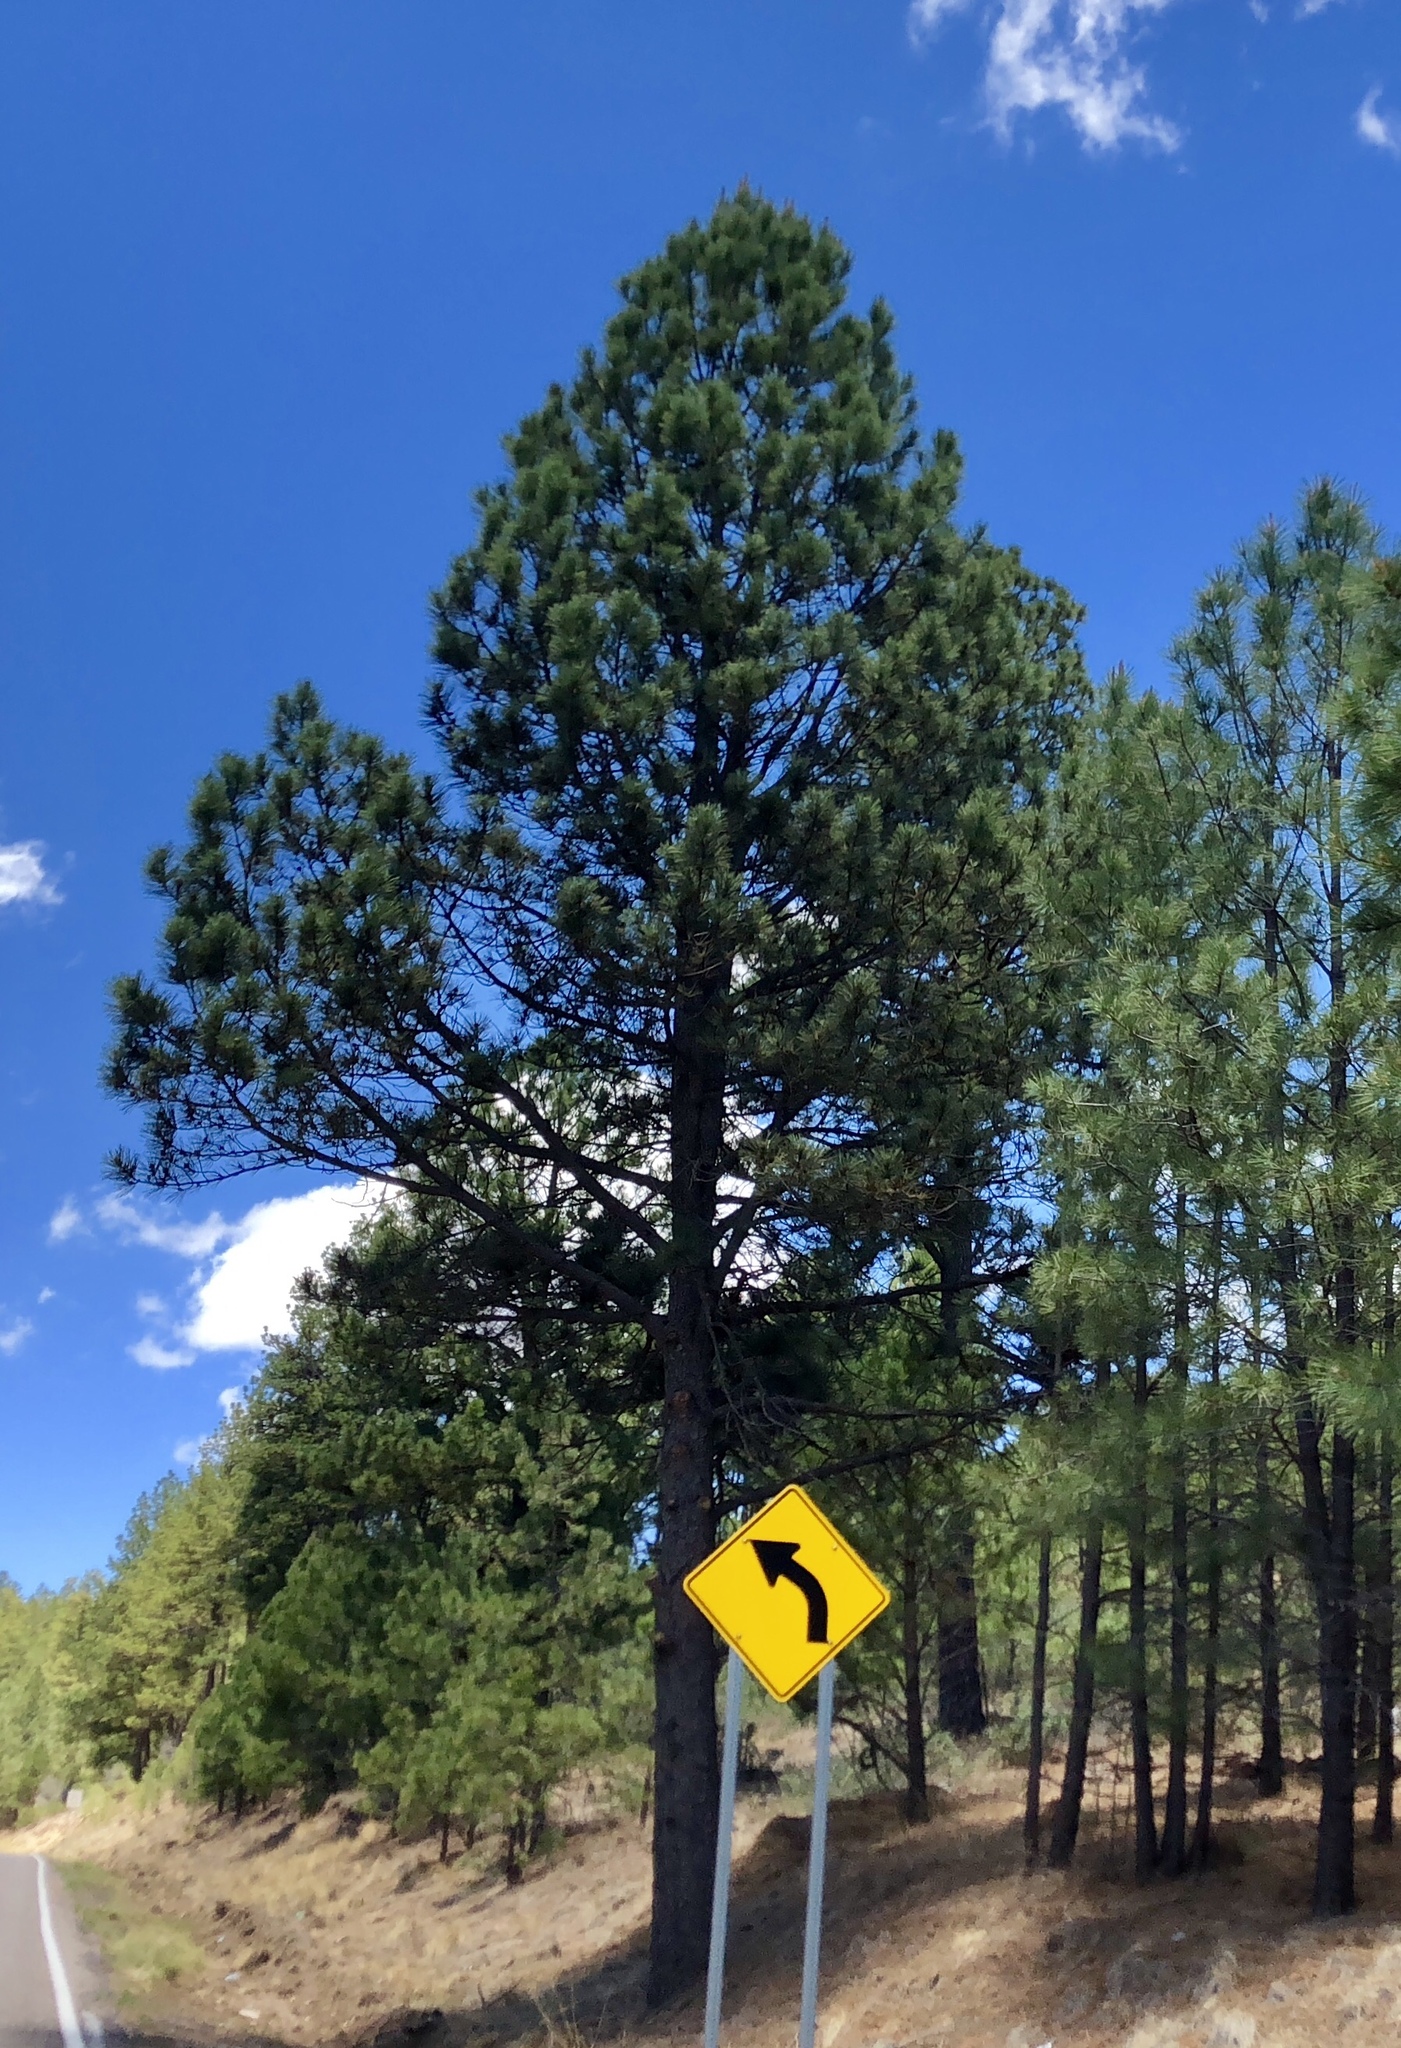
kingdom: Plantae
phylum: Tracheophyta
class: Pinopsida
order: Pinales
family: Pinaceae
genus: Pinus
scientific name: Pinus ponderosa
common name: Western yellow-pine
